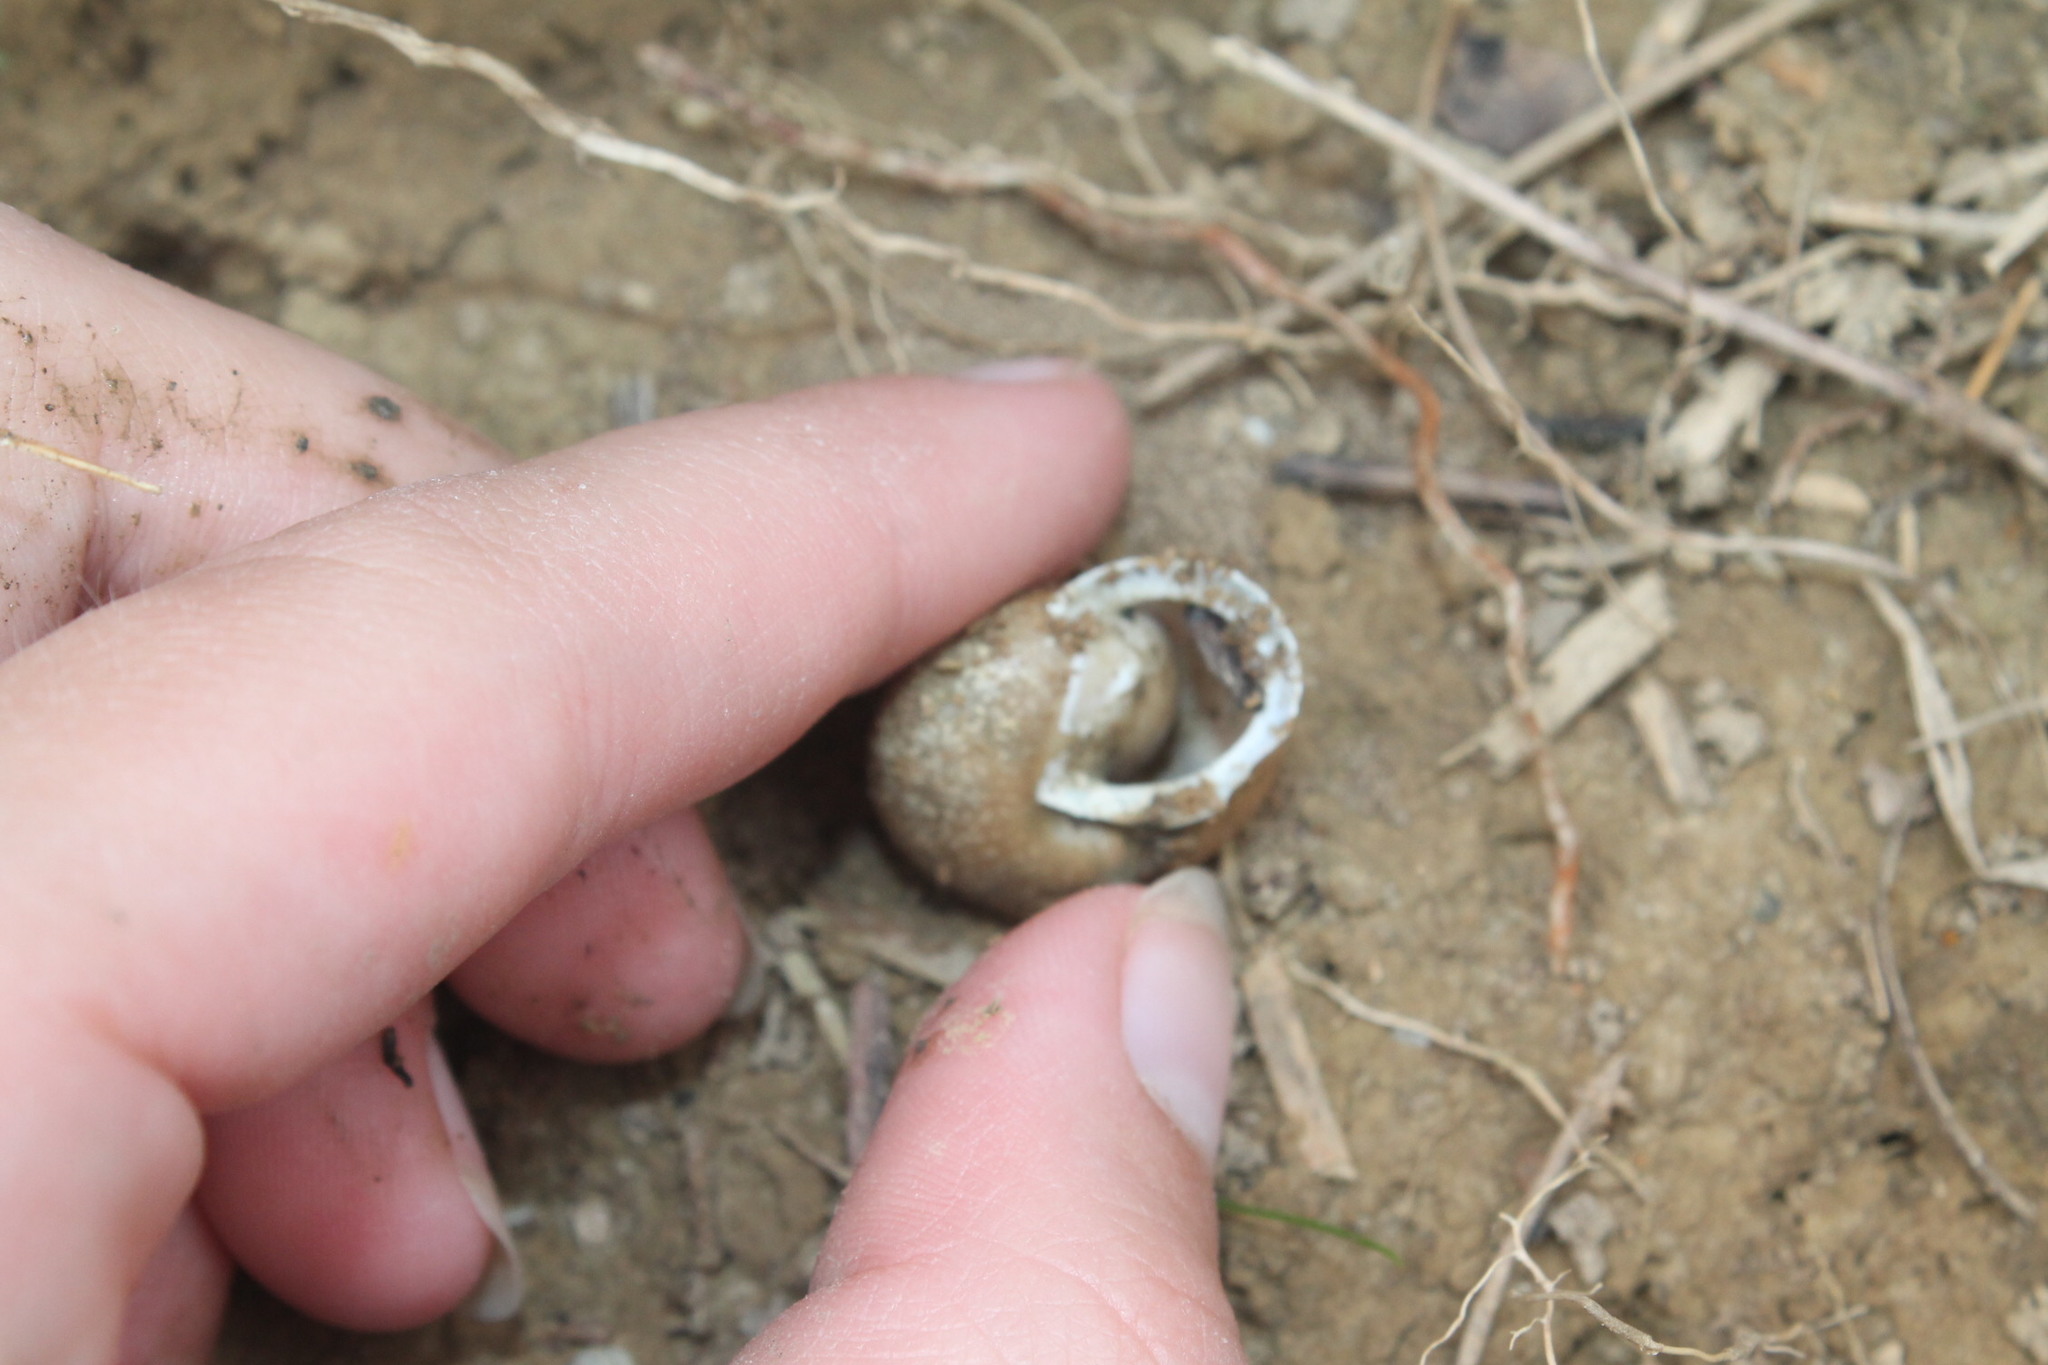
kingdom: Animalia
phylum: Mollusca
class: Gastropoda
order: Stylommatophora
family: Polygyridae
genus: Mesodon
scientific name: Mesodon thyroidus
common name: White-lip globe
